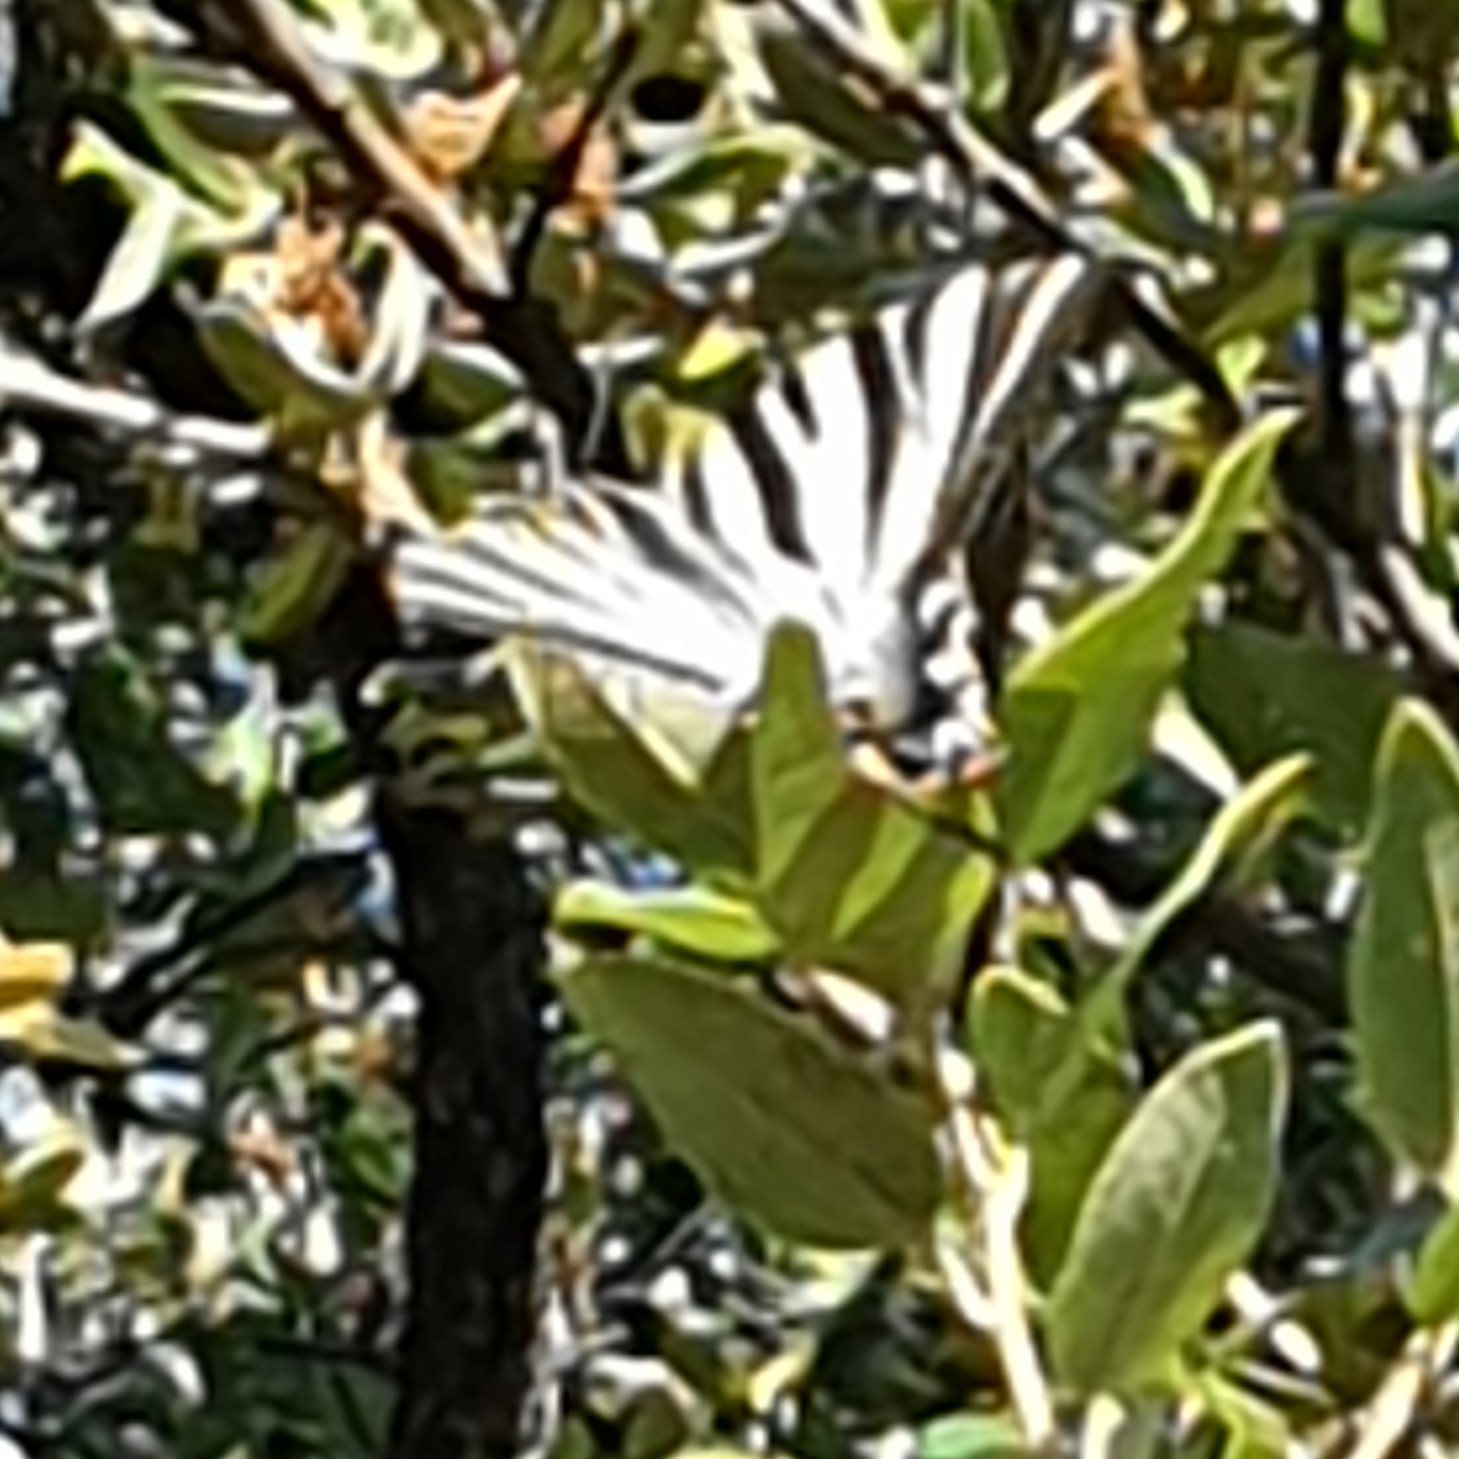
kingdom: Animalia
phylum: Arthropoda
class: Insecta
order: Lepidoptera
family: Papilionidae
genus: Iphiclides
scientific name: Iphiclides feisthamelii
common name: Iberian scarce swallowtail
